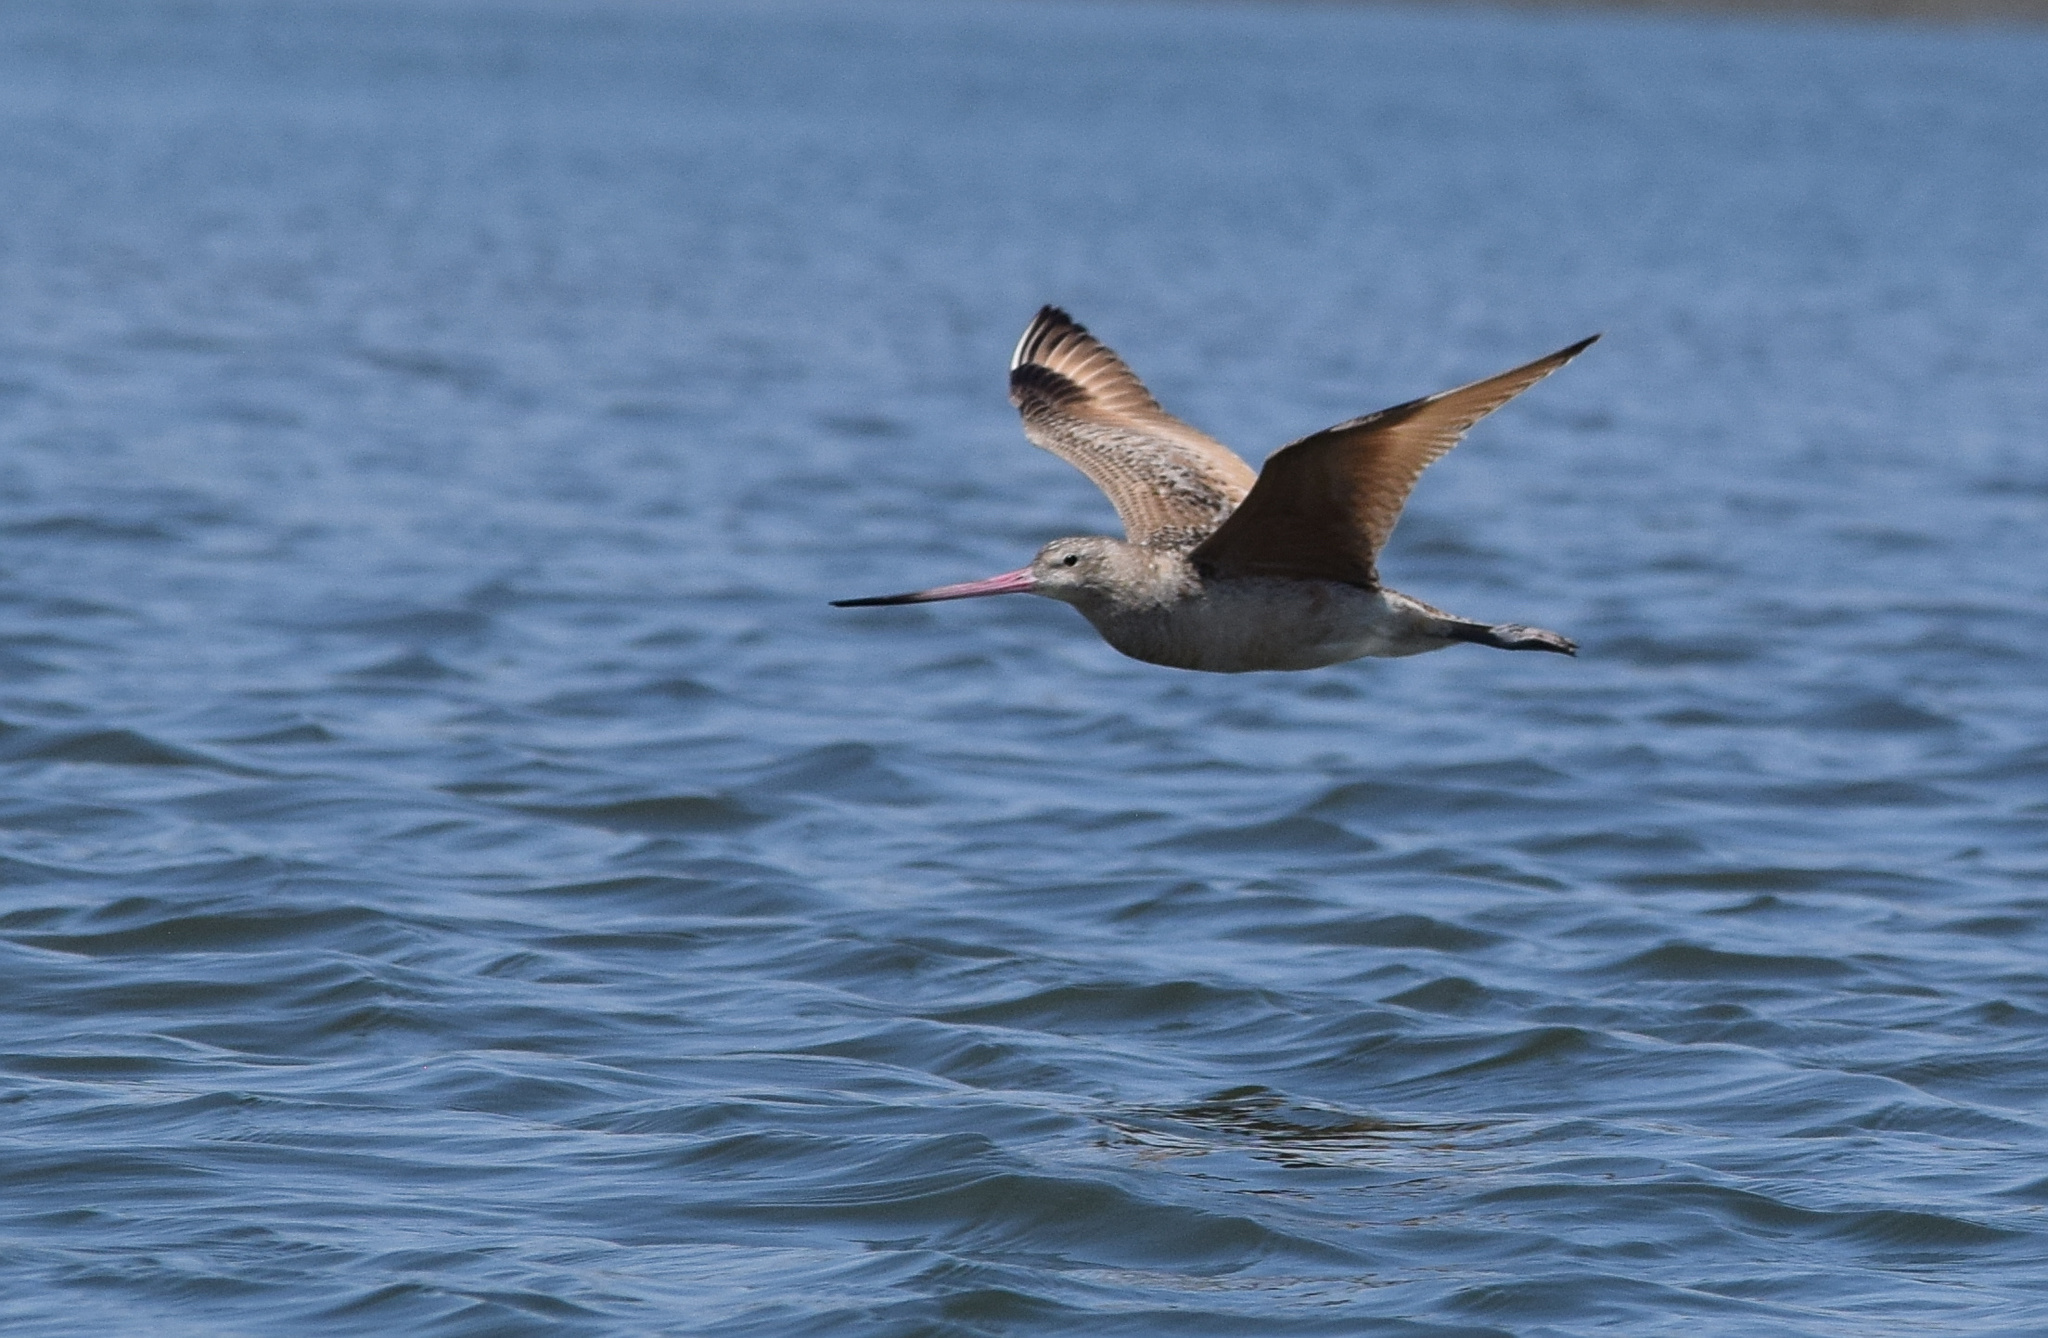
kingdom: Animalia
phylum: Chordata
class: Aves
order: Charadriiformes
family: Scolopacidae
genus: Limosa
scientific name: Limosa fedoa
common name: Marbled godwit
